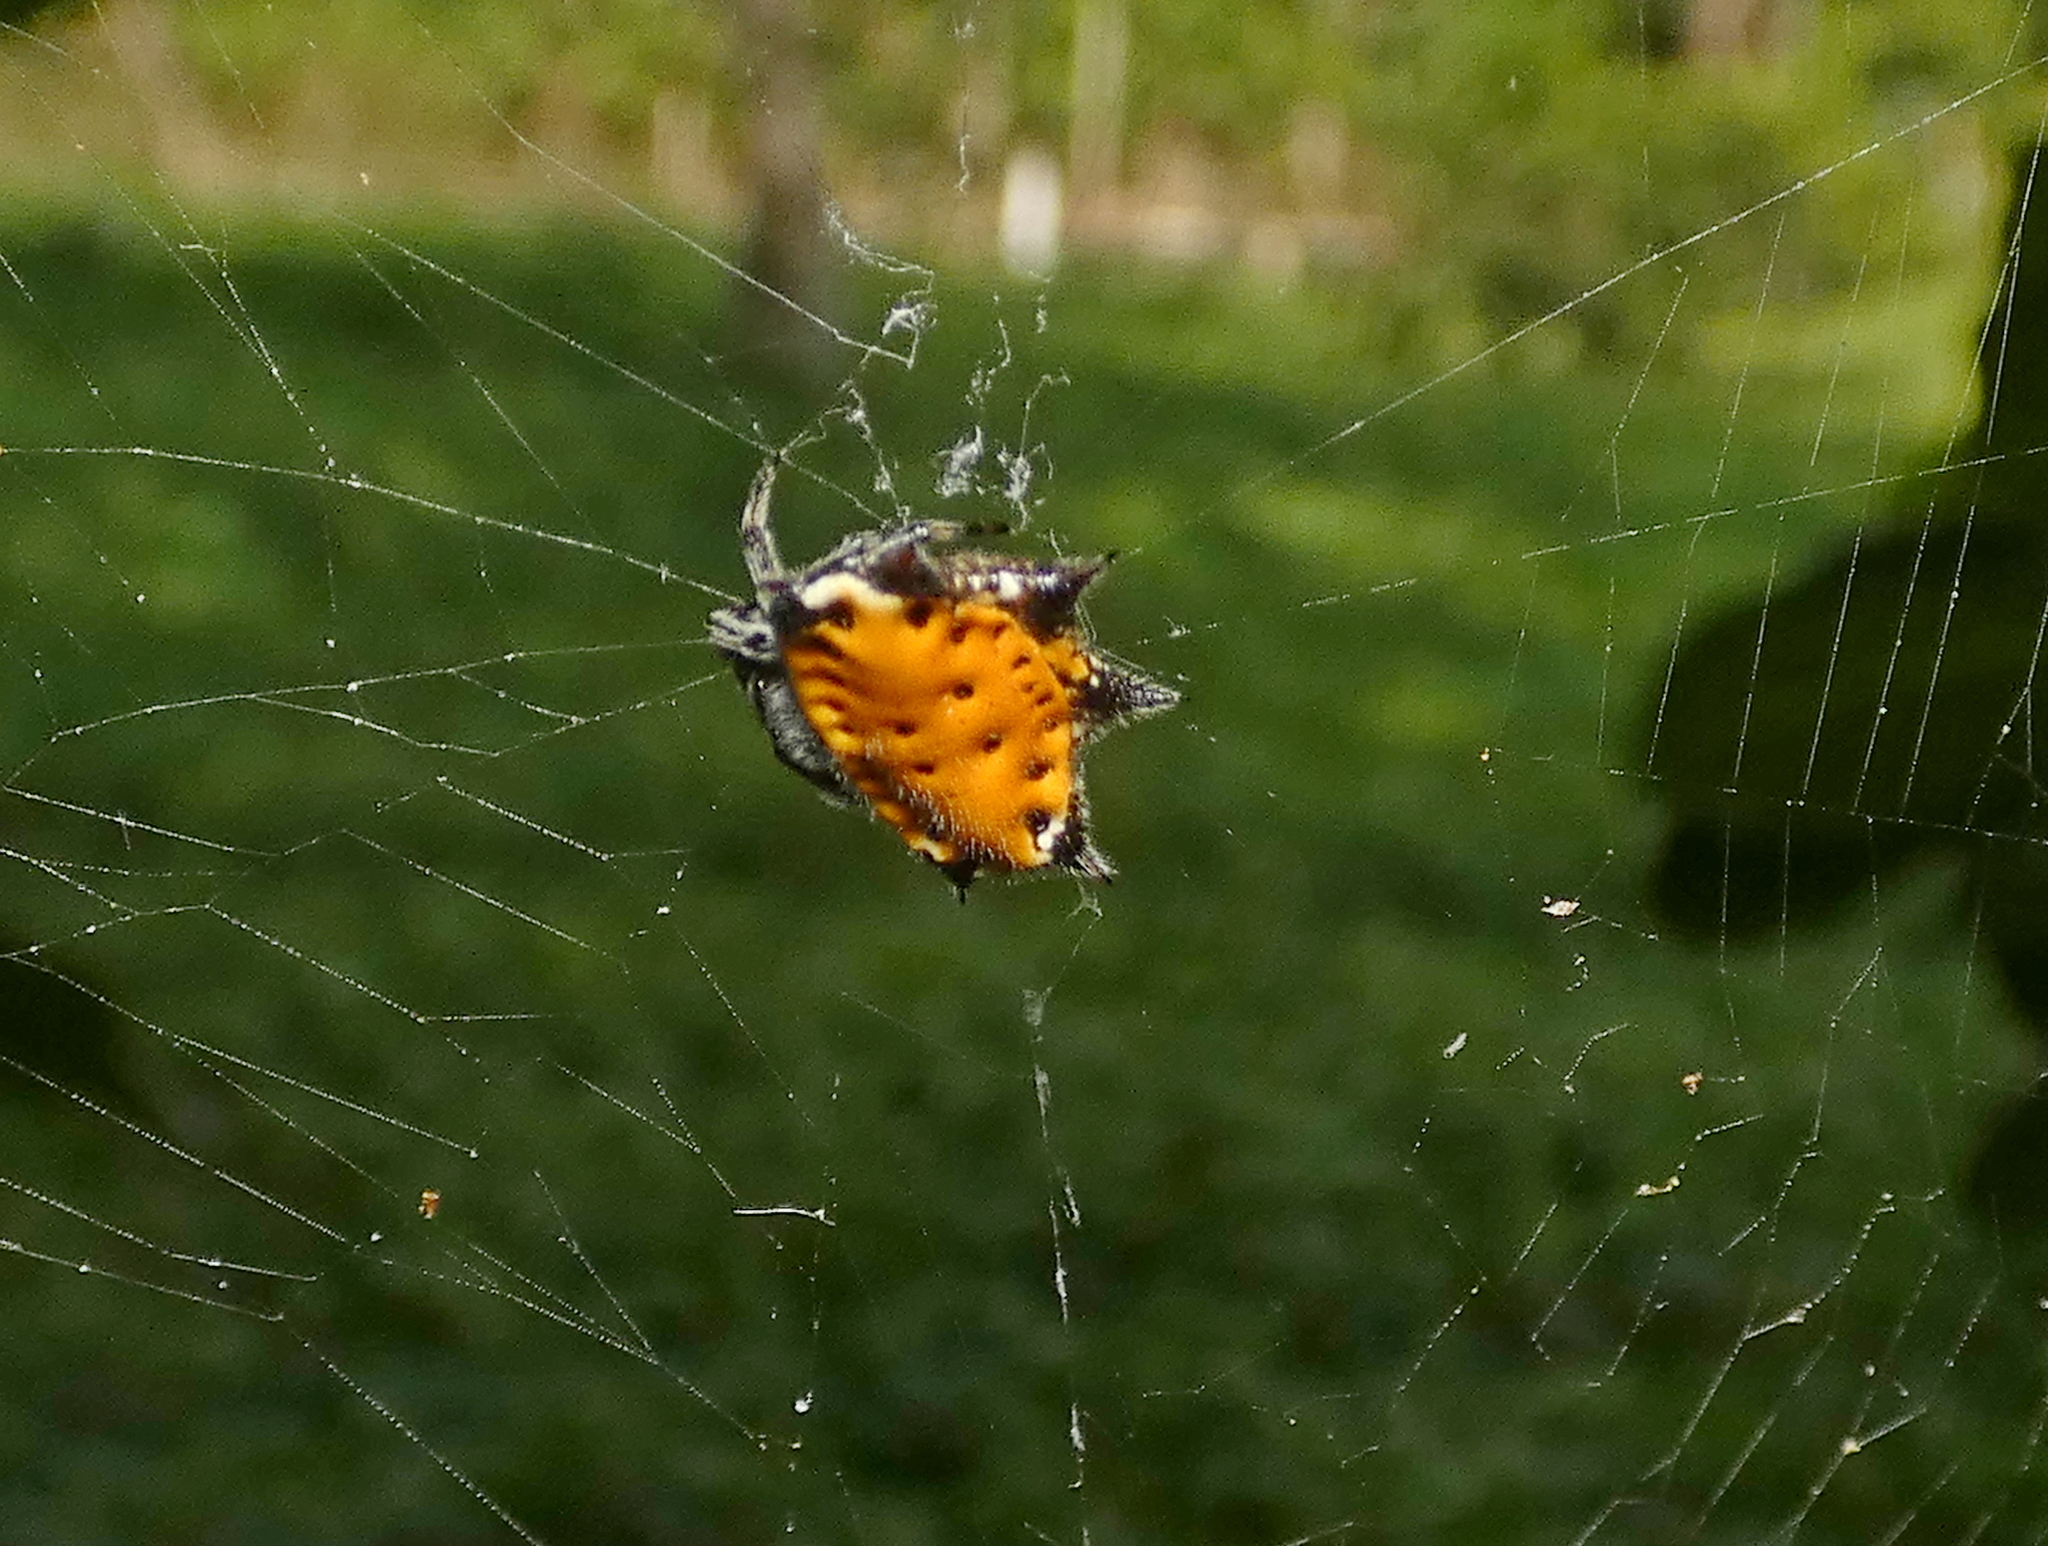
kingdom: Animalia
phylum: Arthropoda
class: Arachnida
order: Araneae
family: Araneidae
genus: Gasteracantha
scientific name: Gasteracantha cancriformis
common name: Orb weavers
